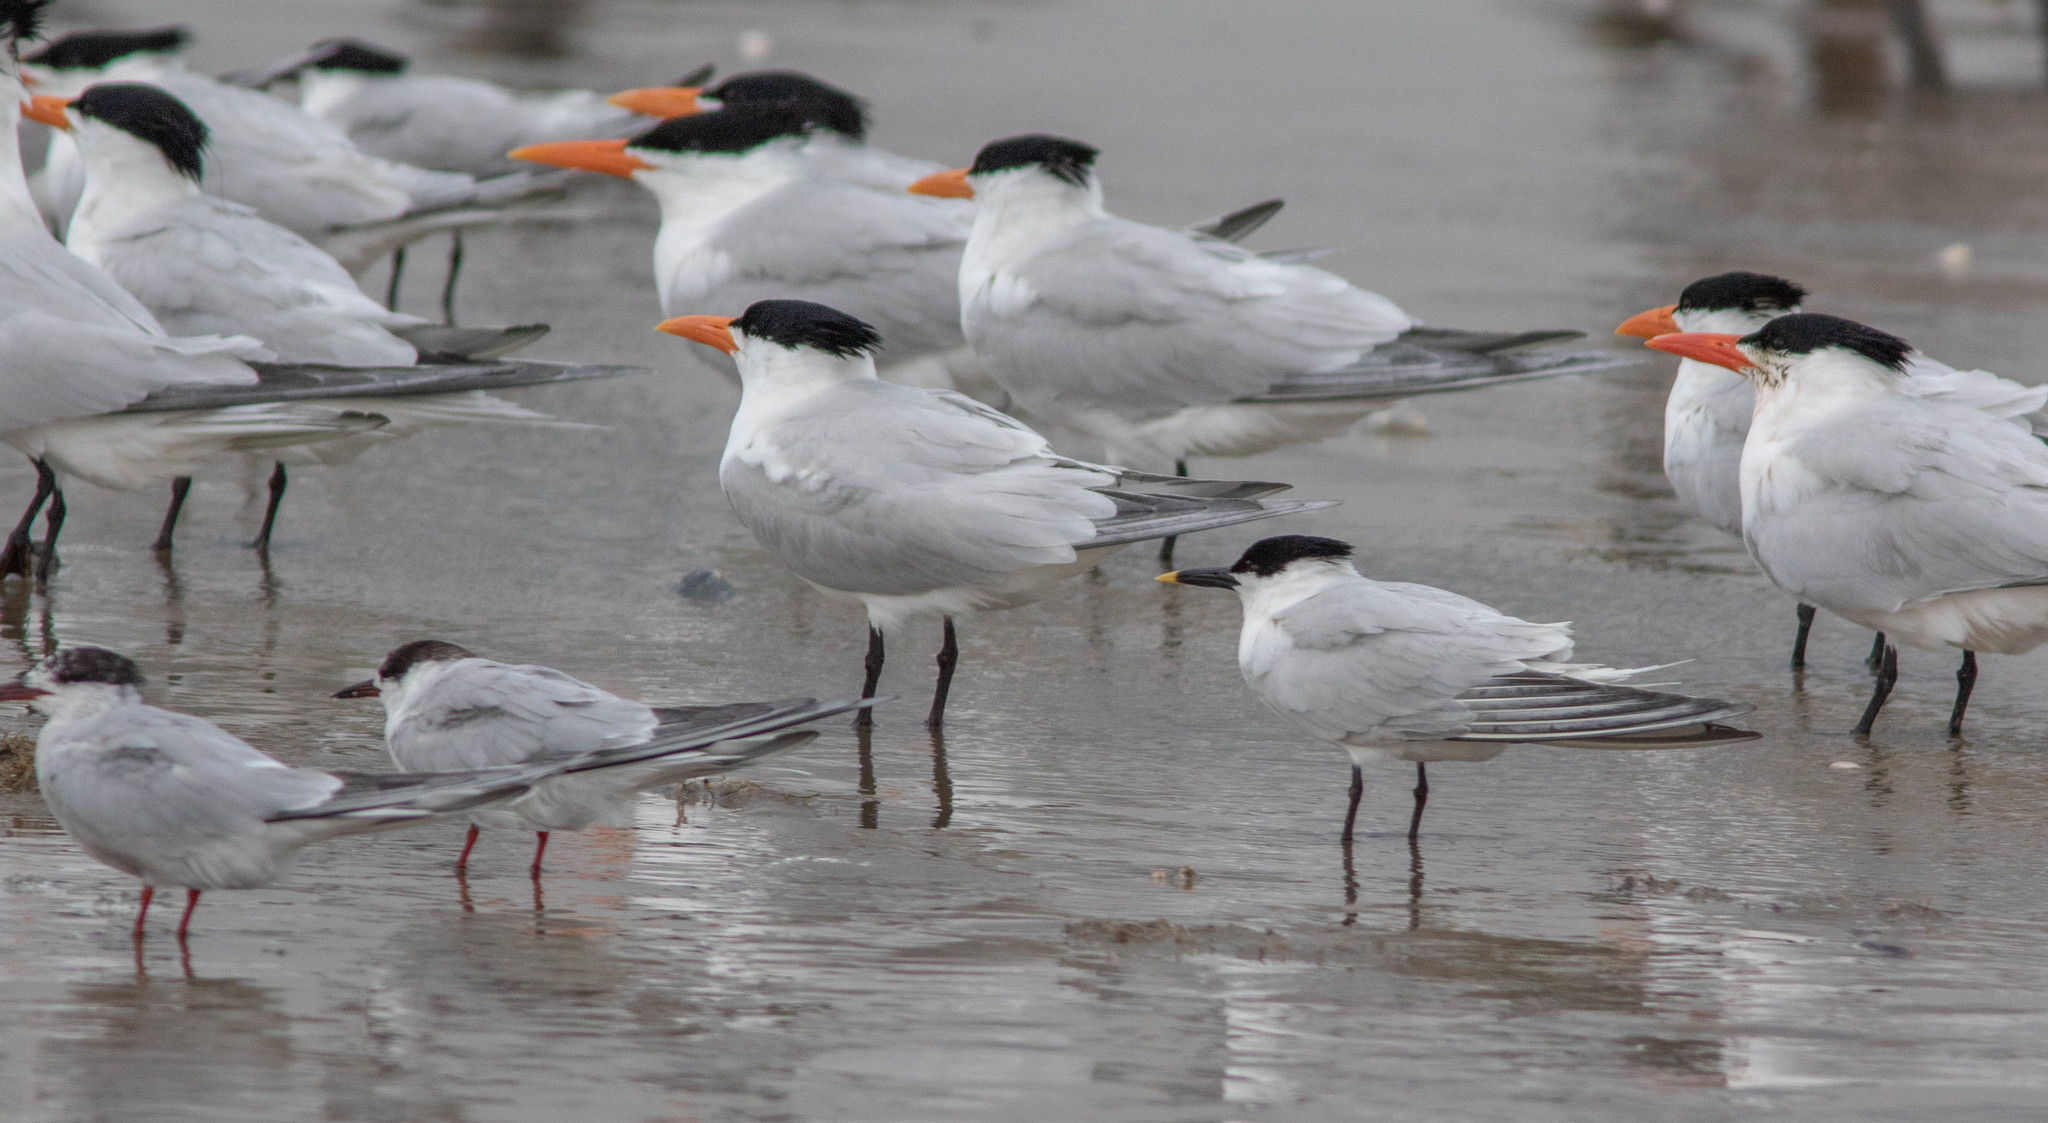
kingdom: Animalia
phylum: Chordata
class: Aves
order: Charadriiformes
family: Laridae
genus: Thalasseus
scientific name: Thalasseus sandvicensis
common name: Sandwich tern
